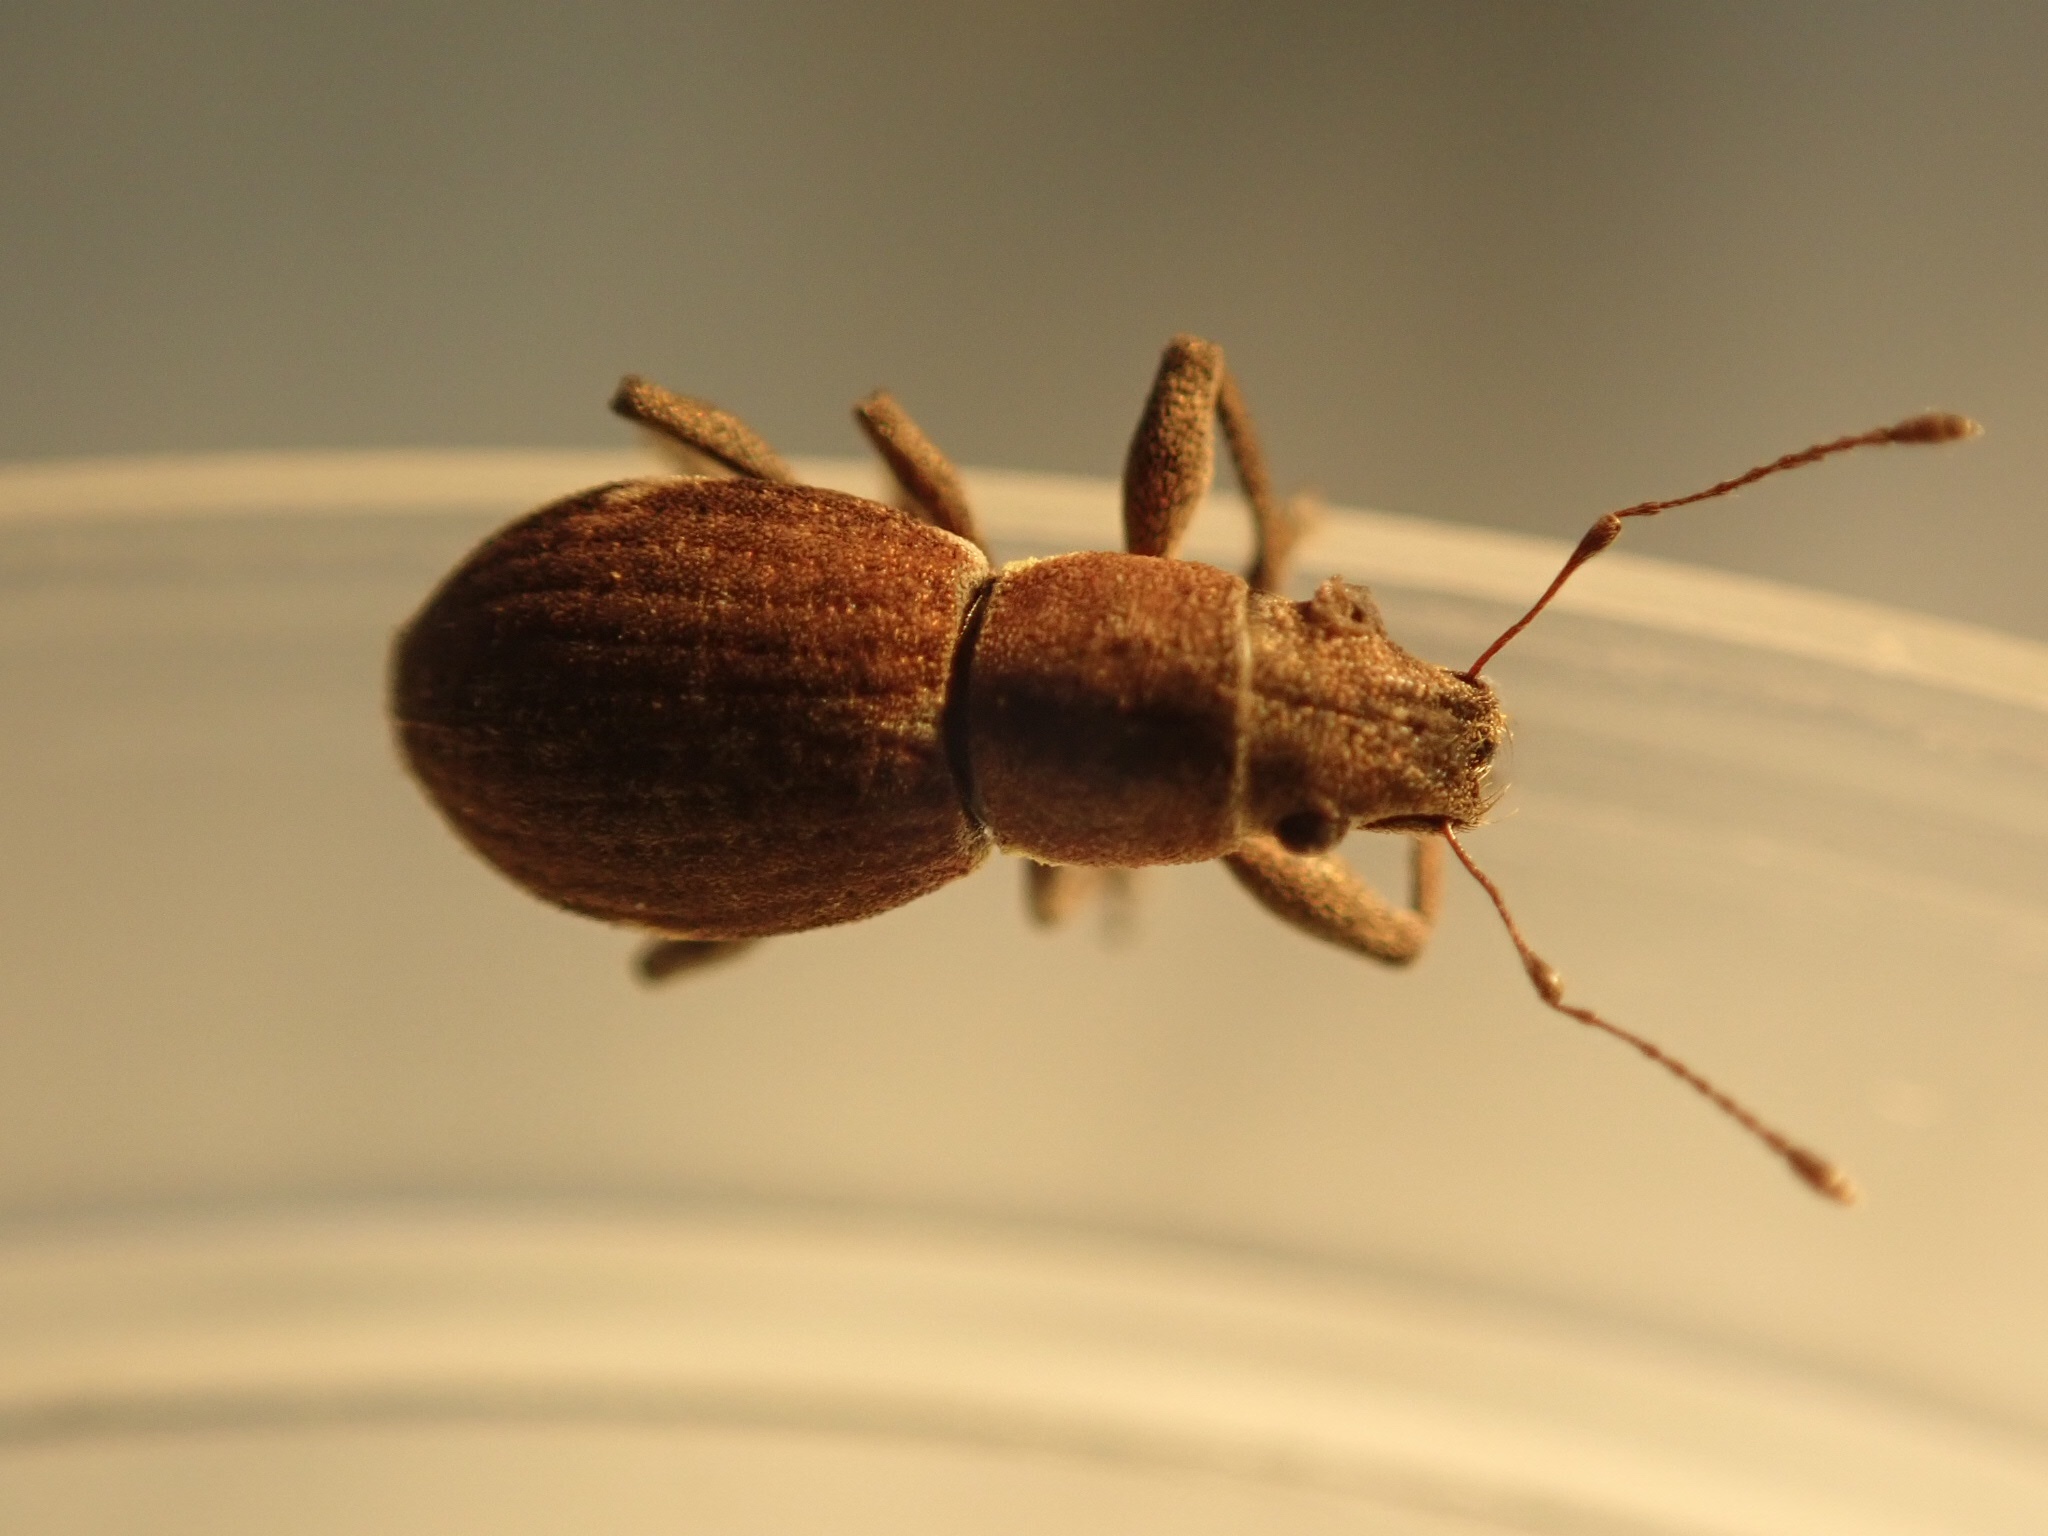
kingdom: Animalia
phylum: Arthropoda
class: Insecta
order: Coleoptera
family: Curculionidae
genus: Naupactus
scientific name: Naupactus cervinus
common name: Fuller rose beetle
